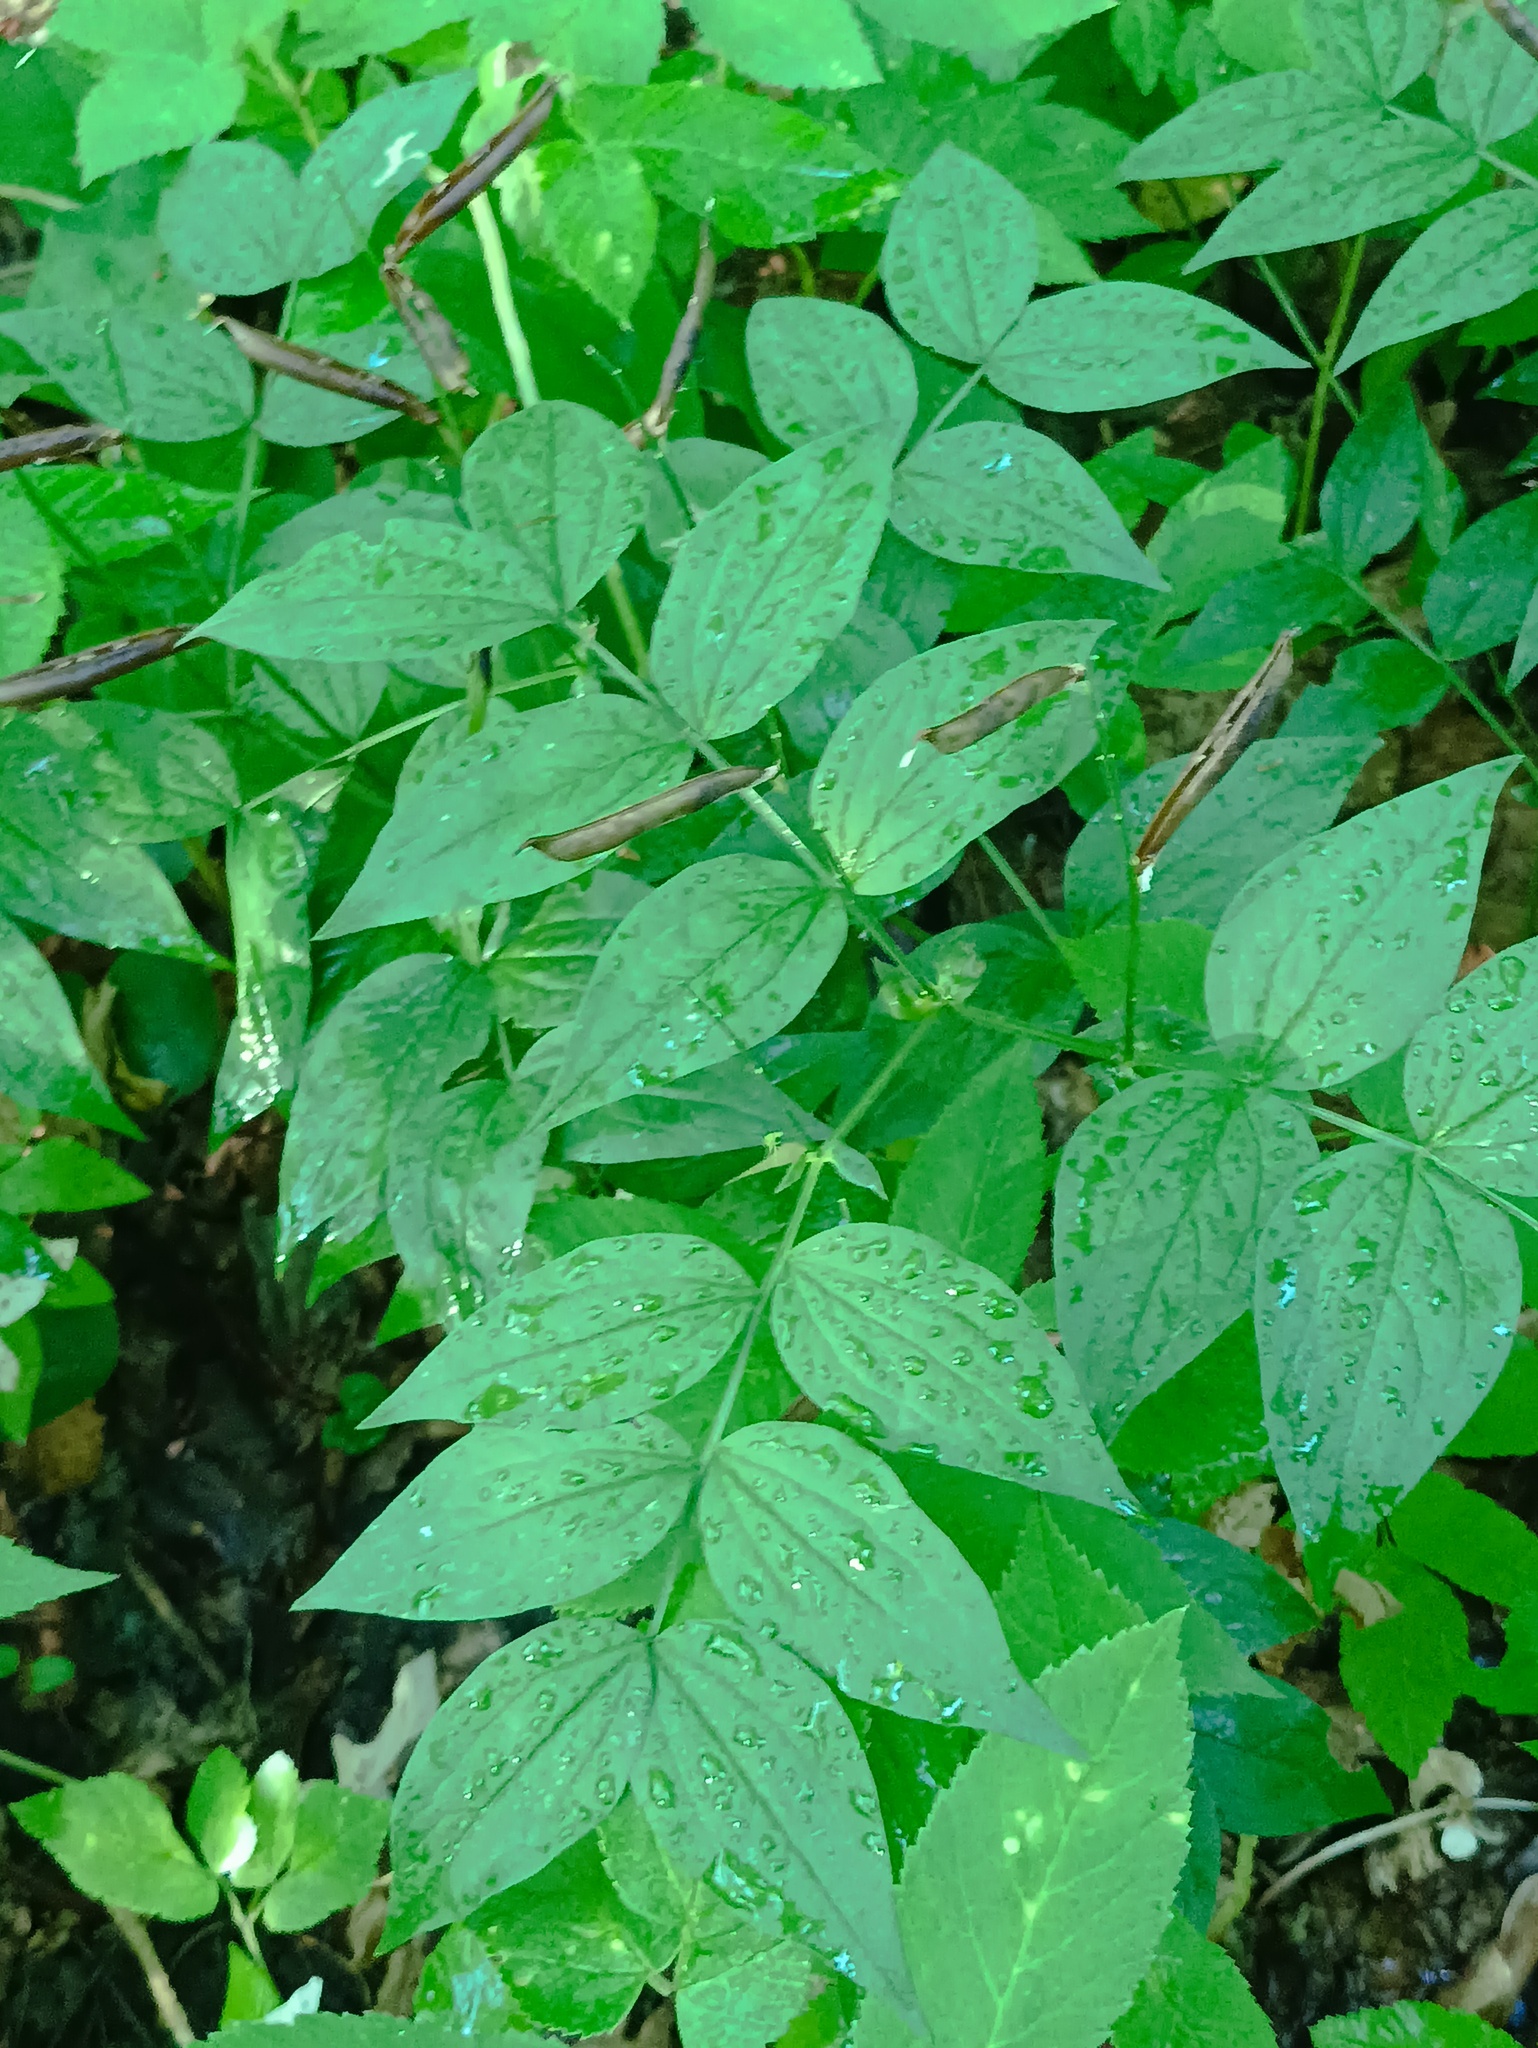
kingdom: Plantae
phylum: Tracheophyta
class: Magnoliopsida
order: Fabales
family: Fabaceae
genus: Lathyrus
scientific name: Lathyrus vernus
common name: Spring pea
